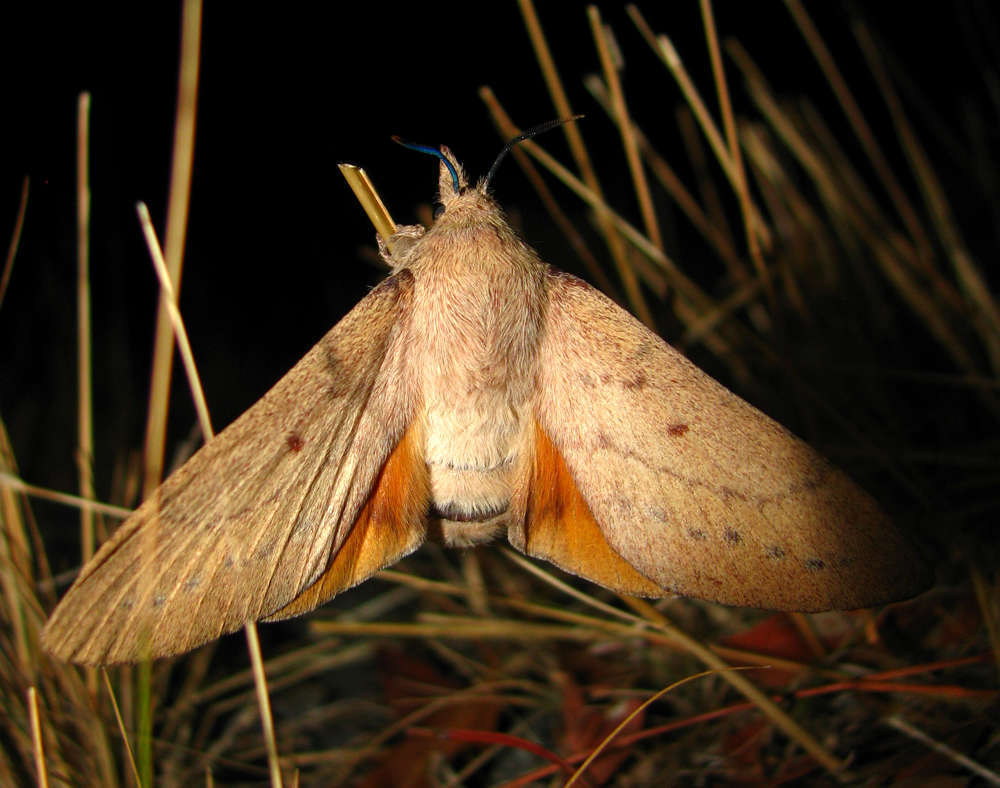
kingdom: Animalia
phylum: Arthropoda
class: Insecta
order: Lepidoptera
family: Lasiocampidae
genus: Entometa
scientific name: Entometa fervens
